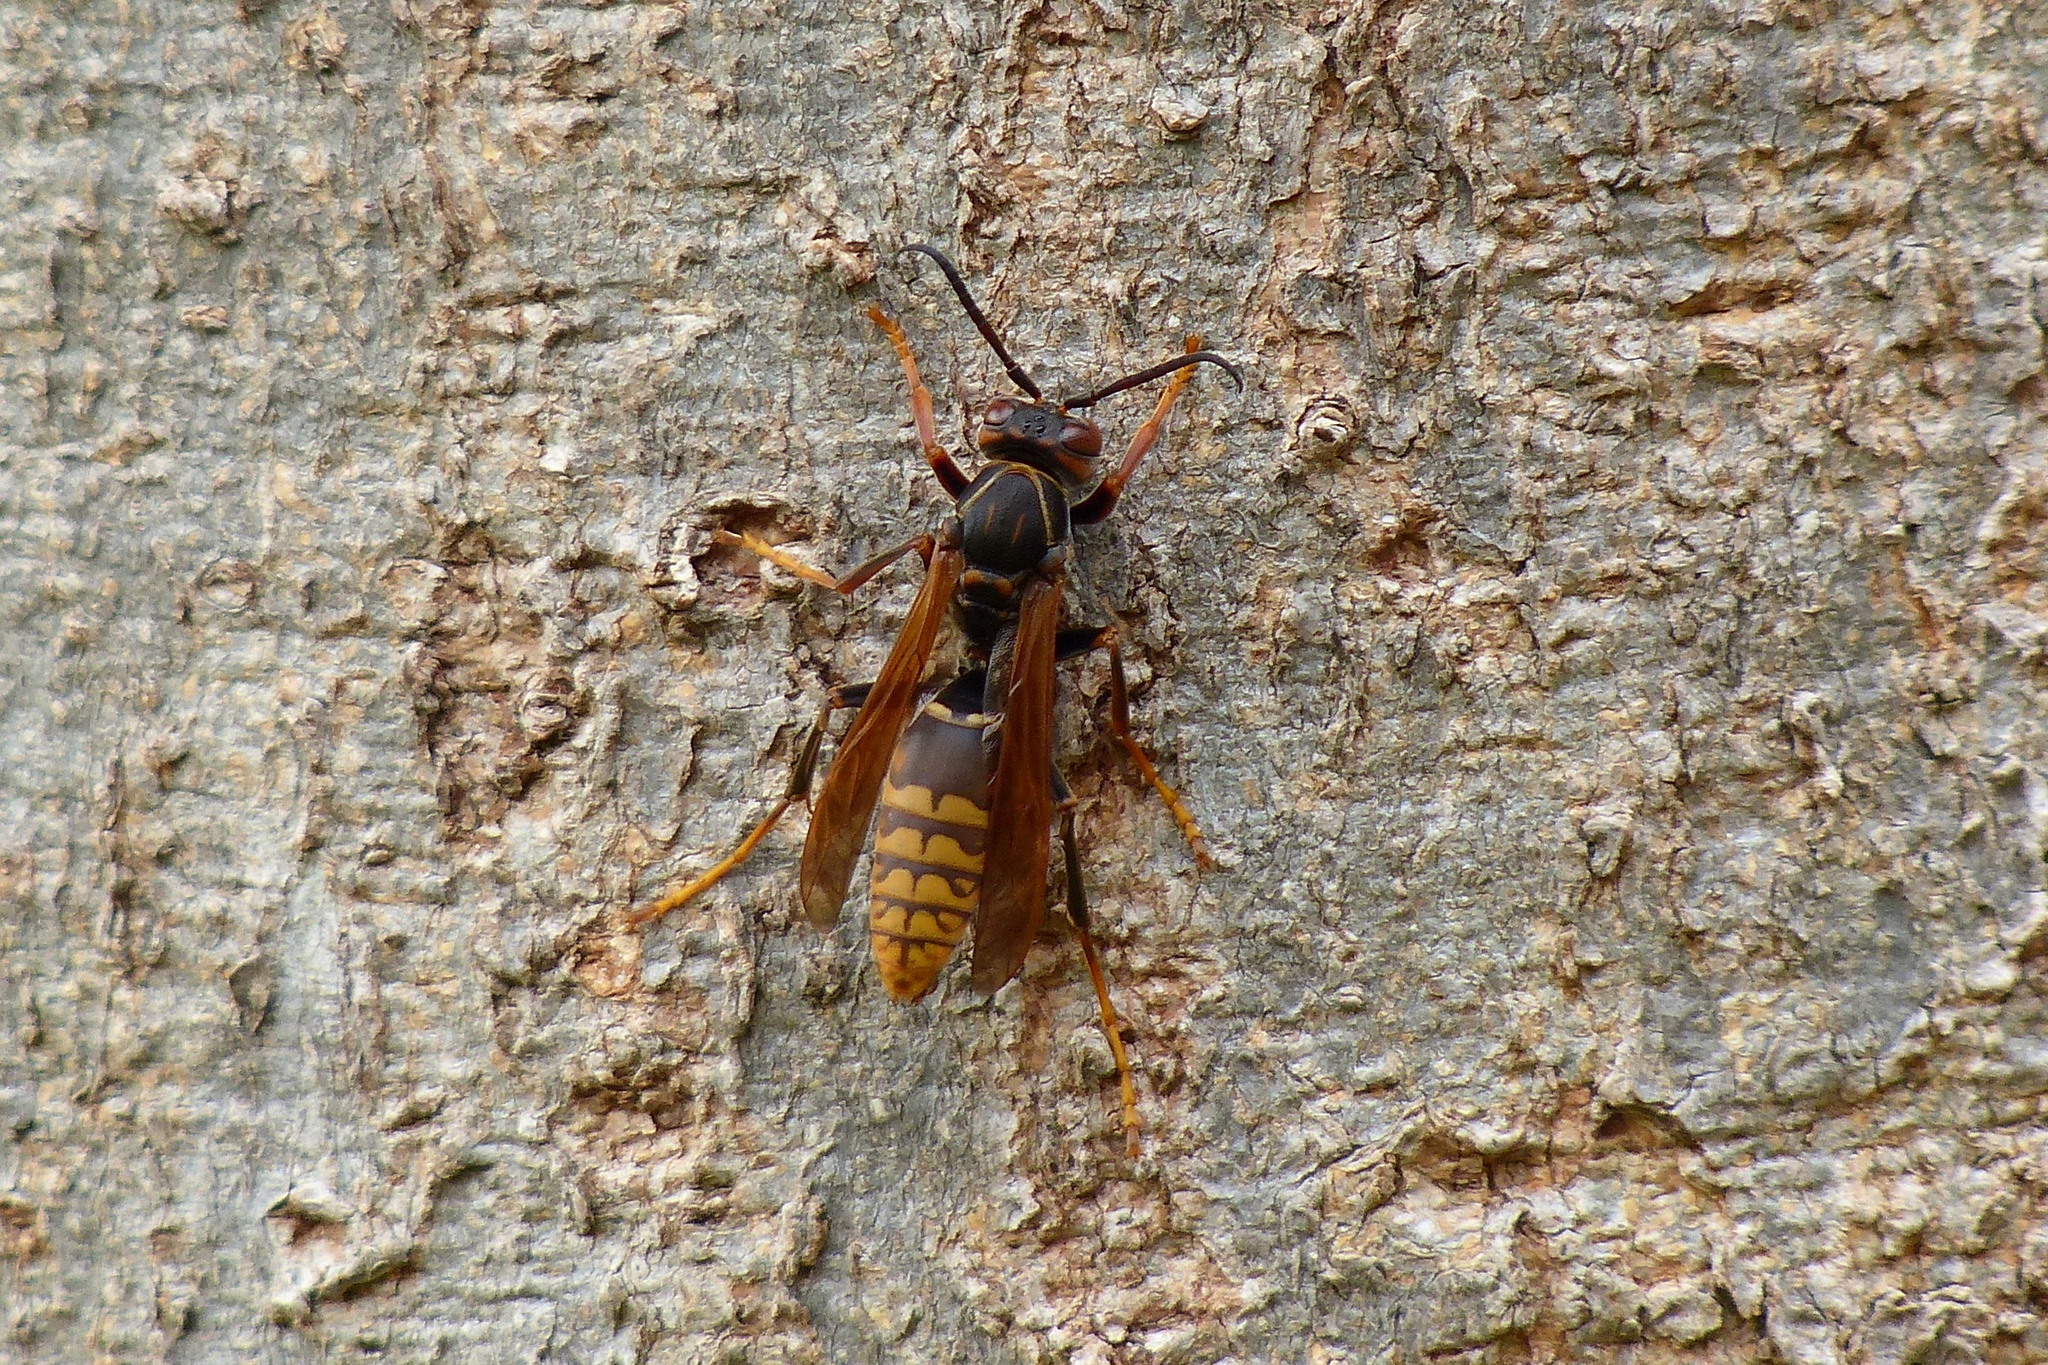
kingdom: Animalia
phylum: Arthropoda
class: Insecta
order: Hymenoptera
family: Eumenidae
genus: Polistes
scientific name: Polistes jokahamae
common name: Paper wasp
